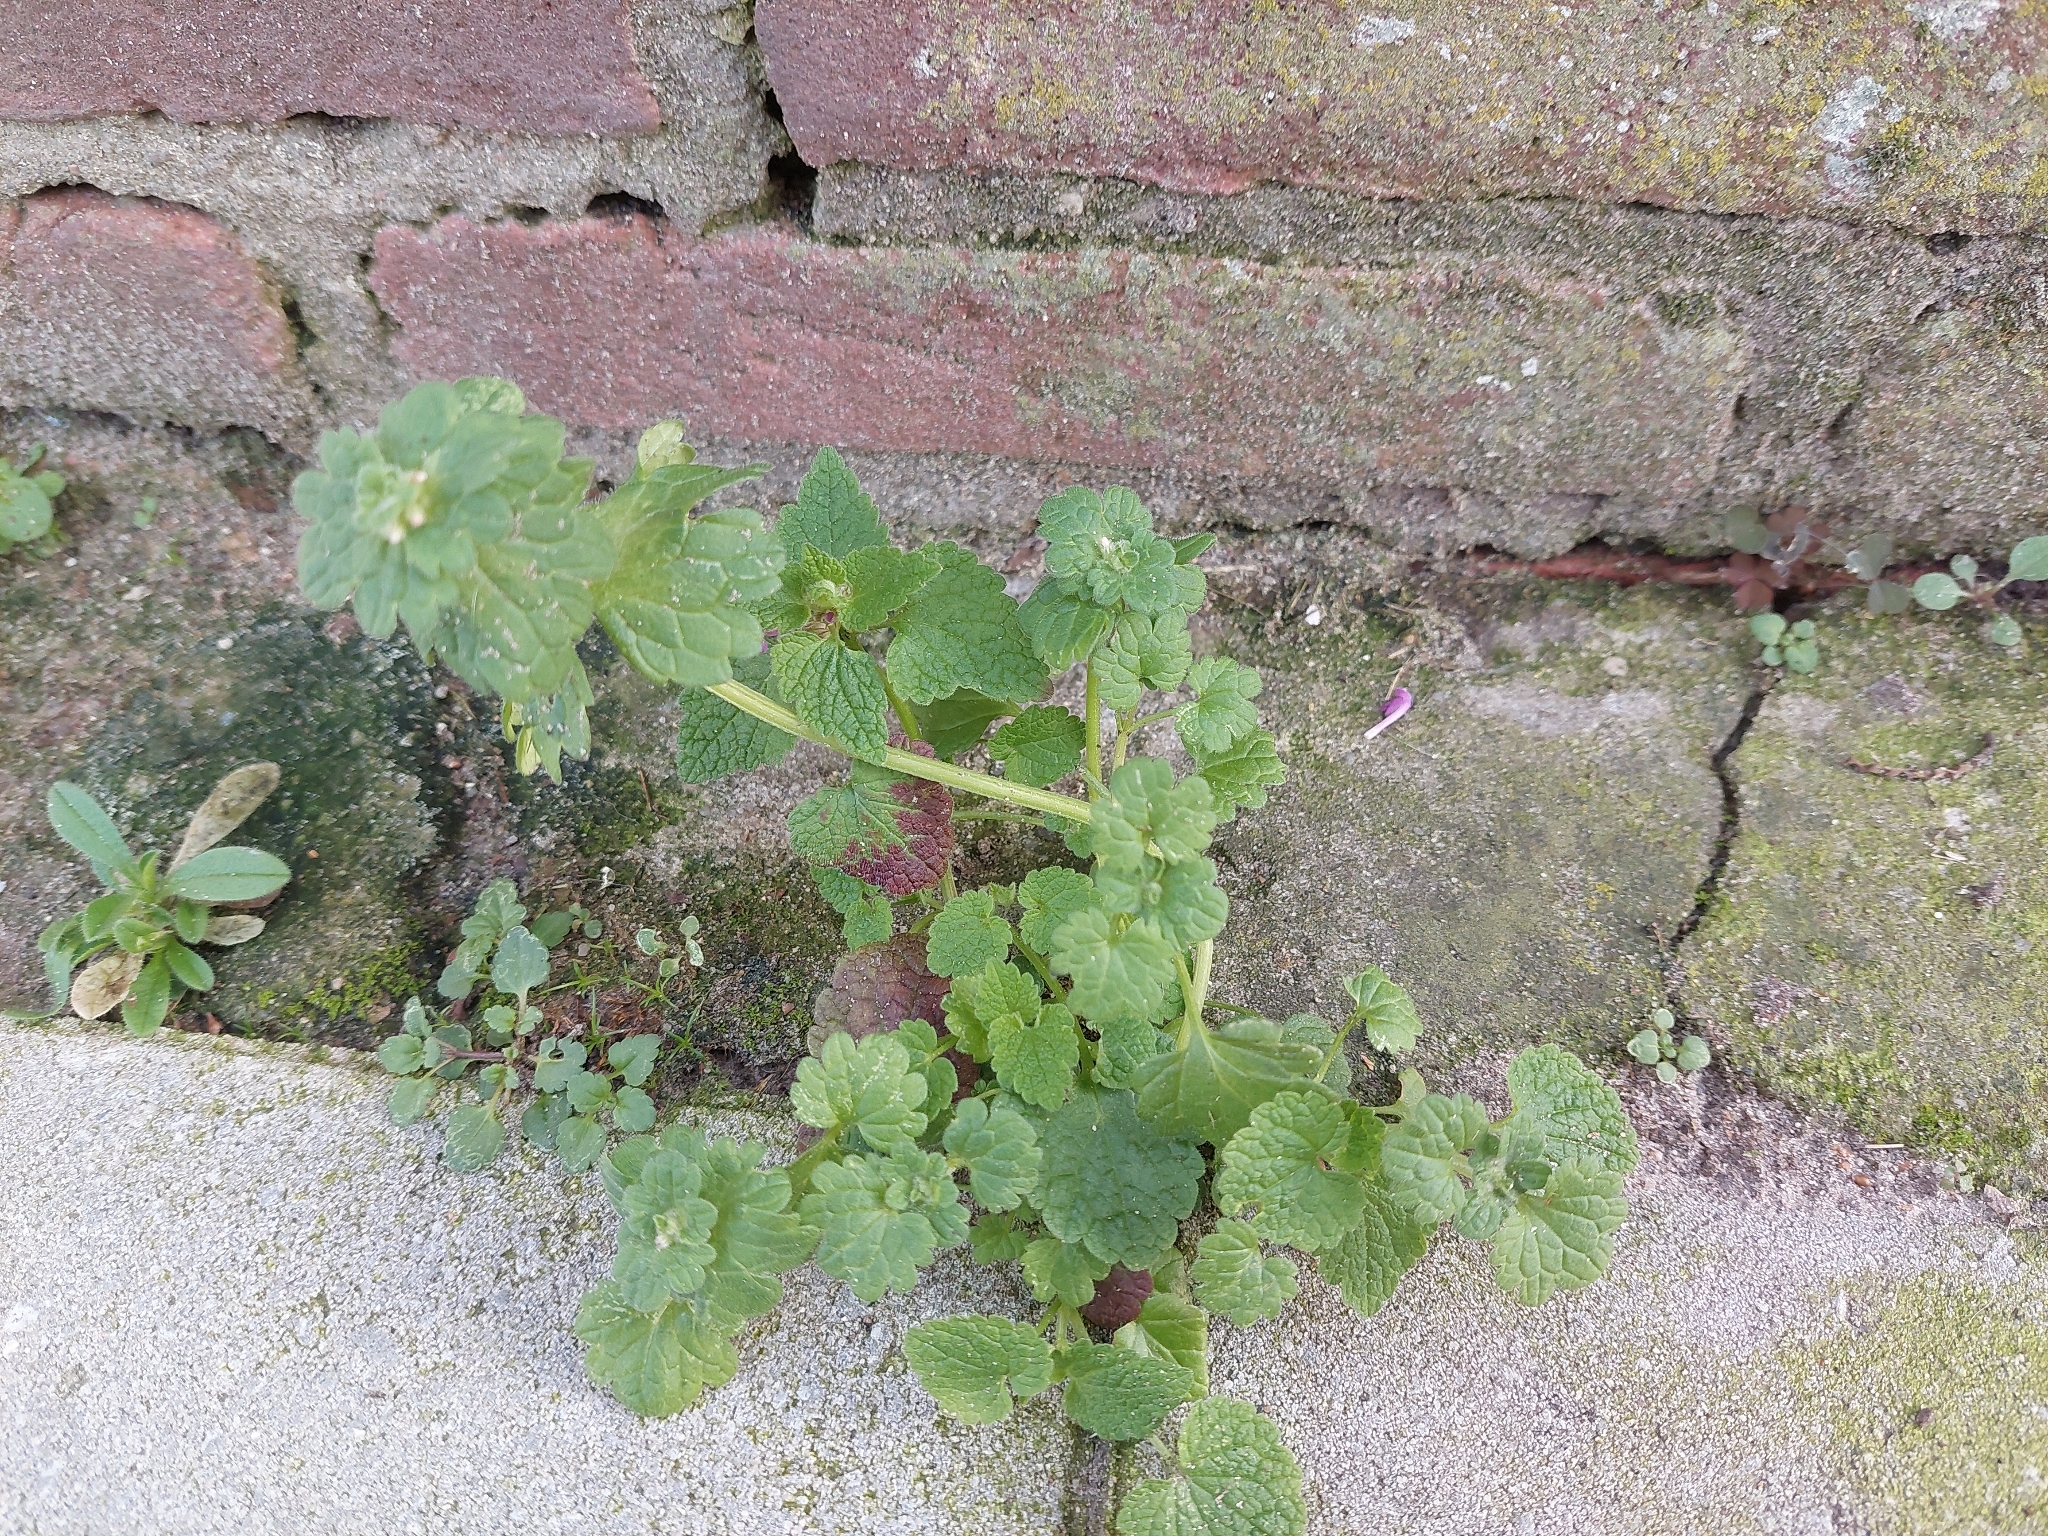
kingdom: Plantae
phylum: Tracheophyta
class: Magnoliopsida
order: Lamiales
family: Lamiaceae
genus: Lamium
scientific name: Lamium amplexicaule
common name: Henbit dead-nettle
